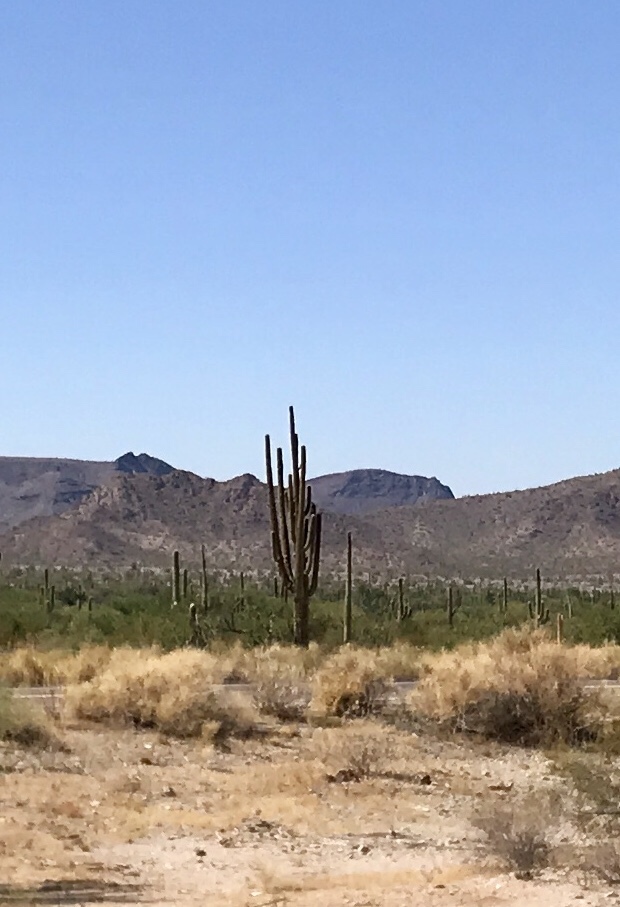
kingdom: Plantae
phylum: Tracheophyta
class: Magnoliopsida
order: Caryophyllales
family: Cactaceae
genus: Carnegiea
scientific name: Carnegiea gigantea
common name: Saguaro
